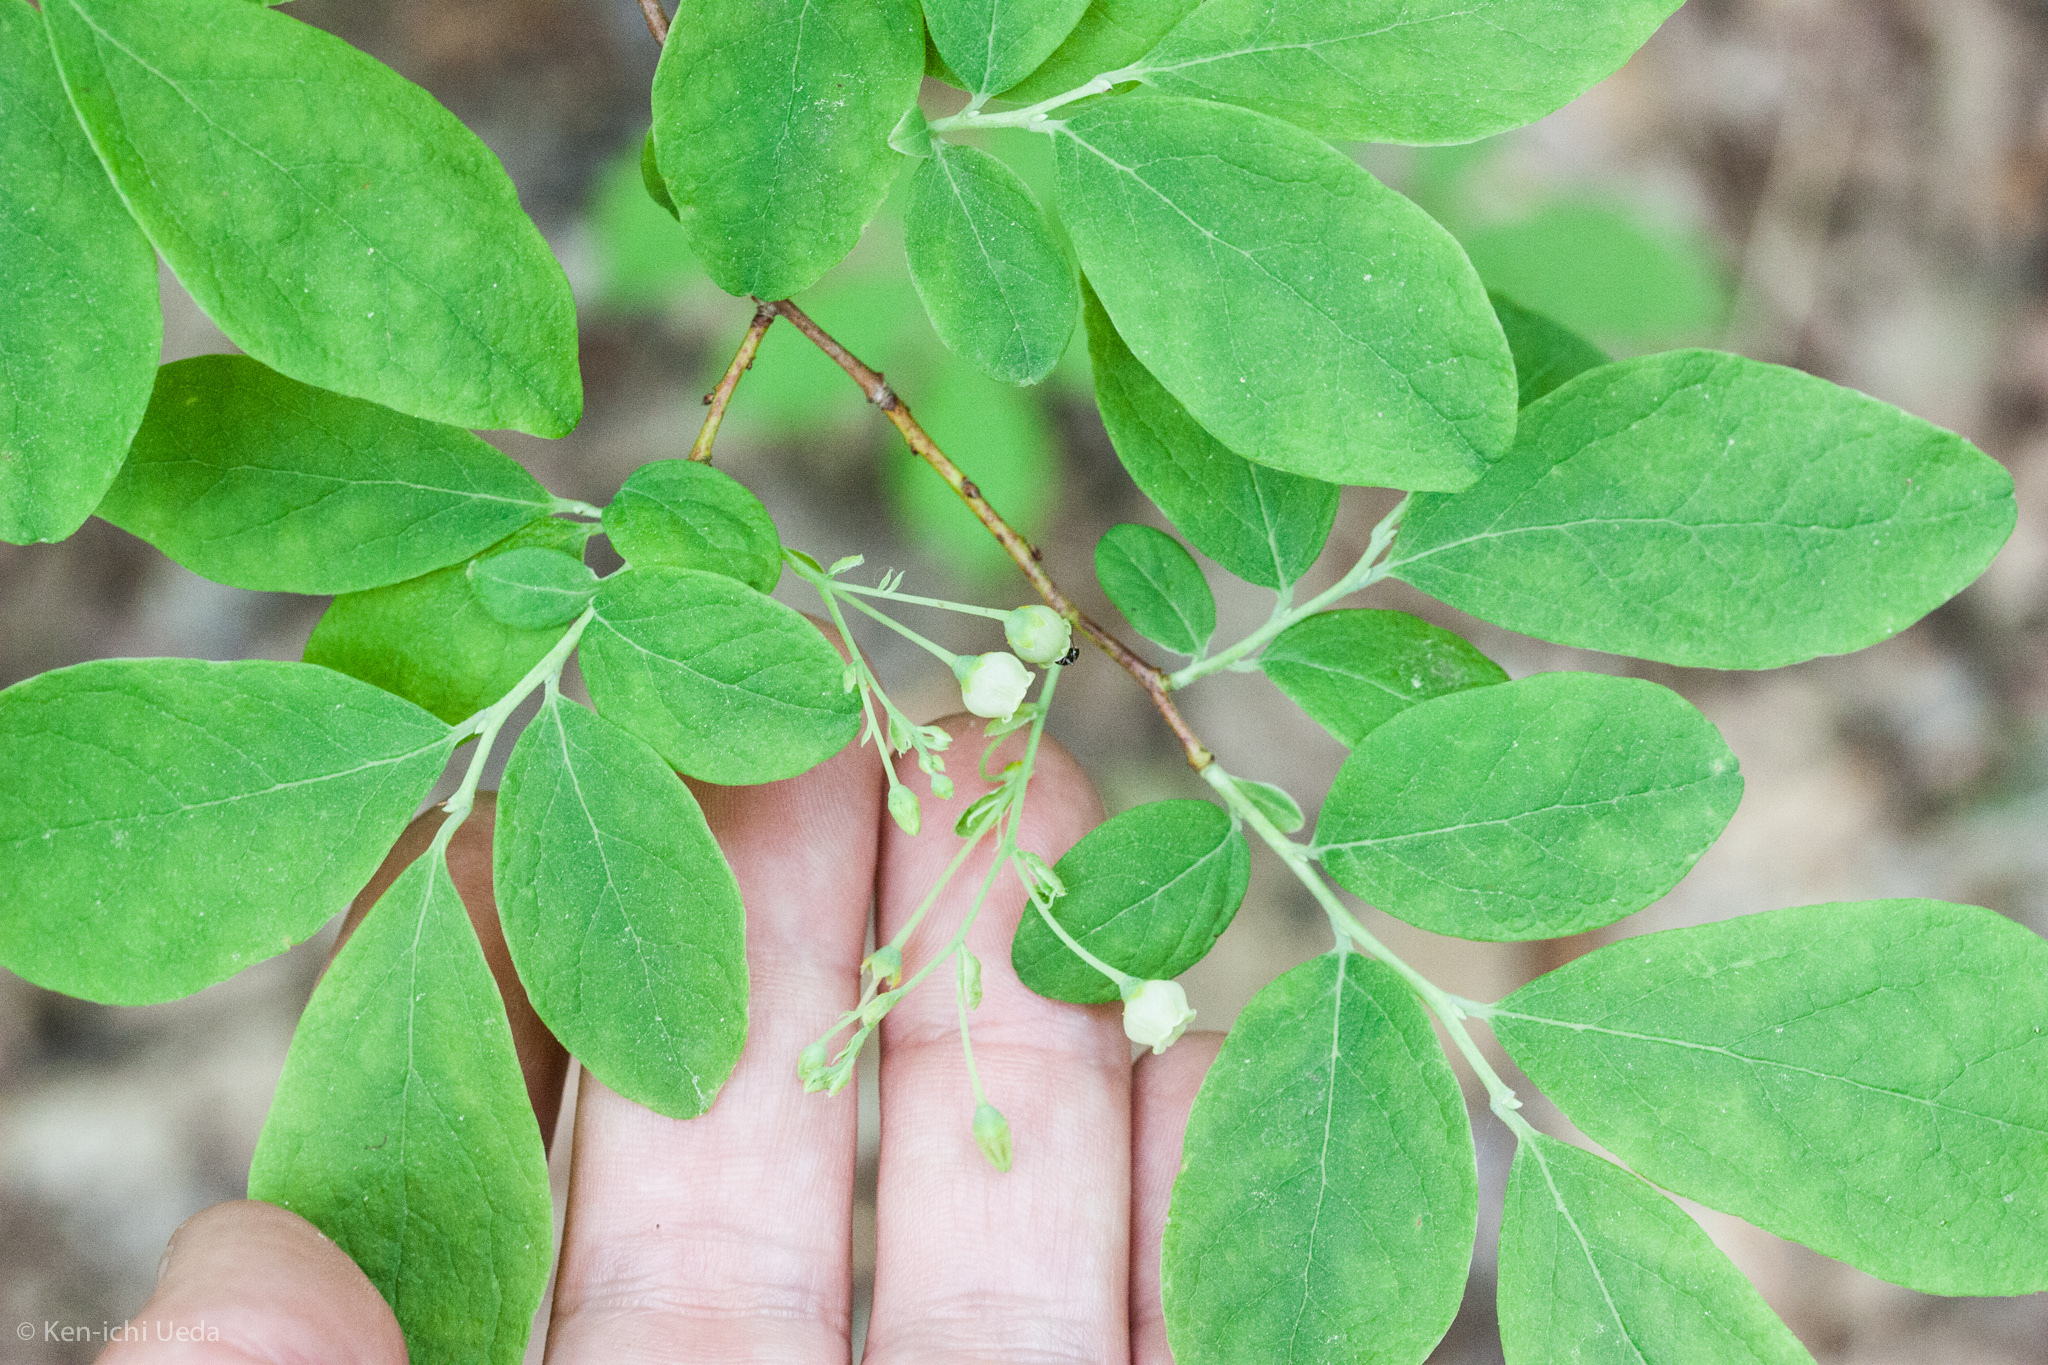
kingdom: Plantae
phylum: Tracheophyta
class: Magnoliopsida
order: Ericales
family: Ericaceae
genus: Gaylussacia
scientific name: Gaylussacia frondosa
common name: Dangleberry
